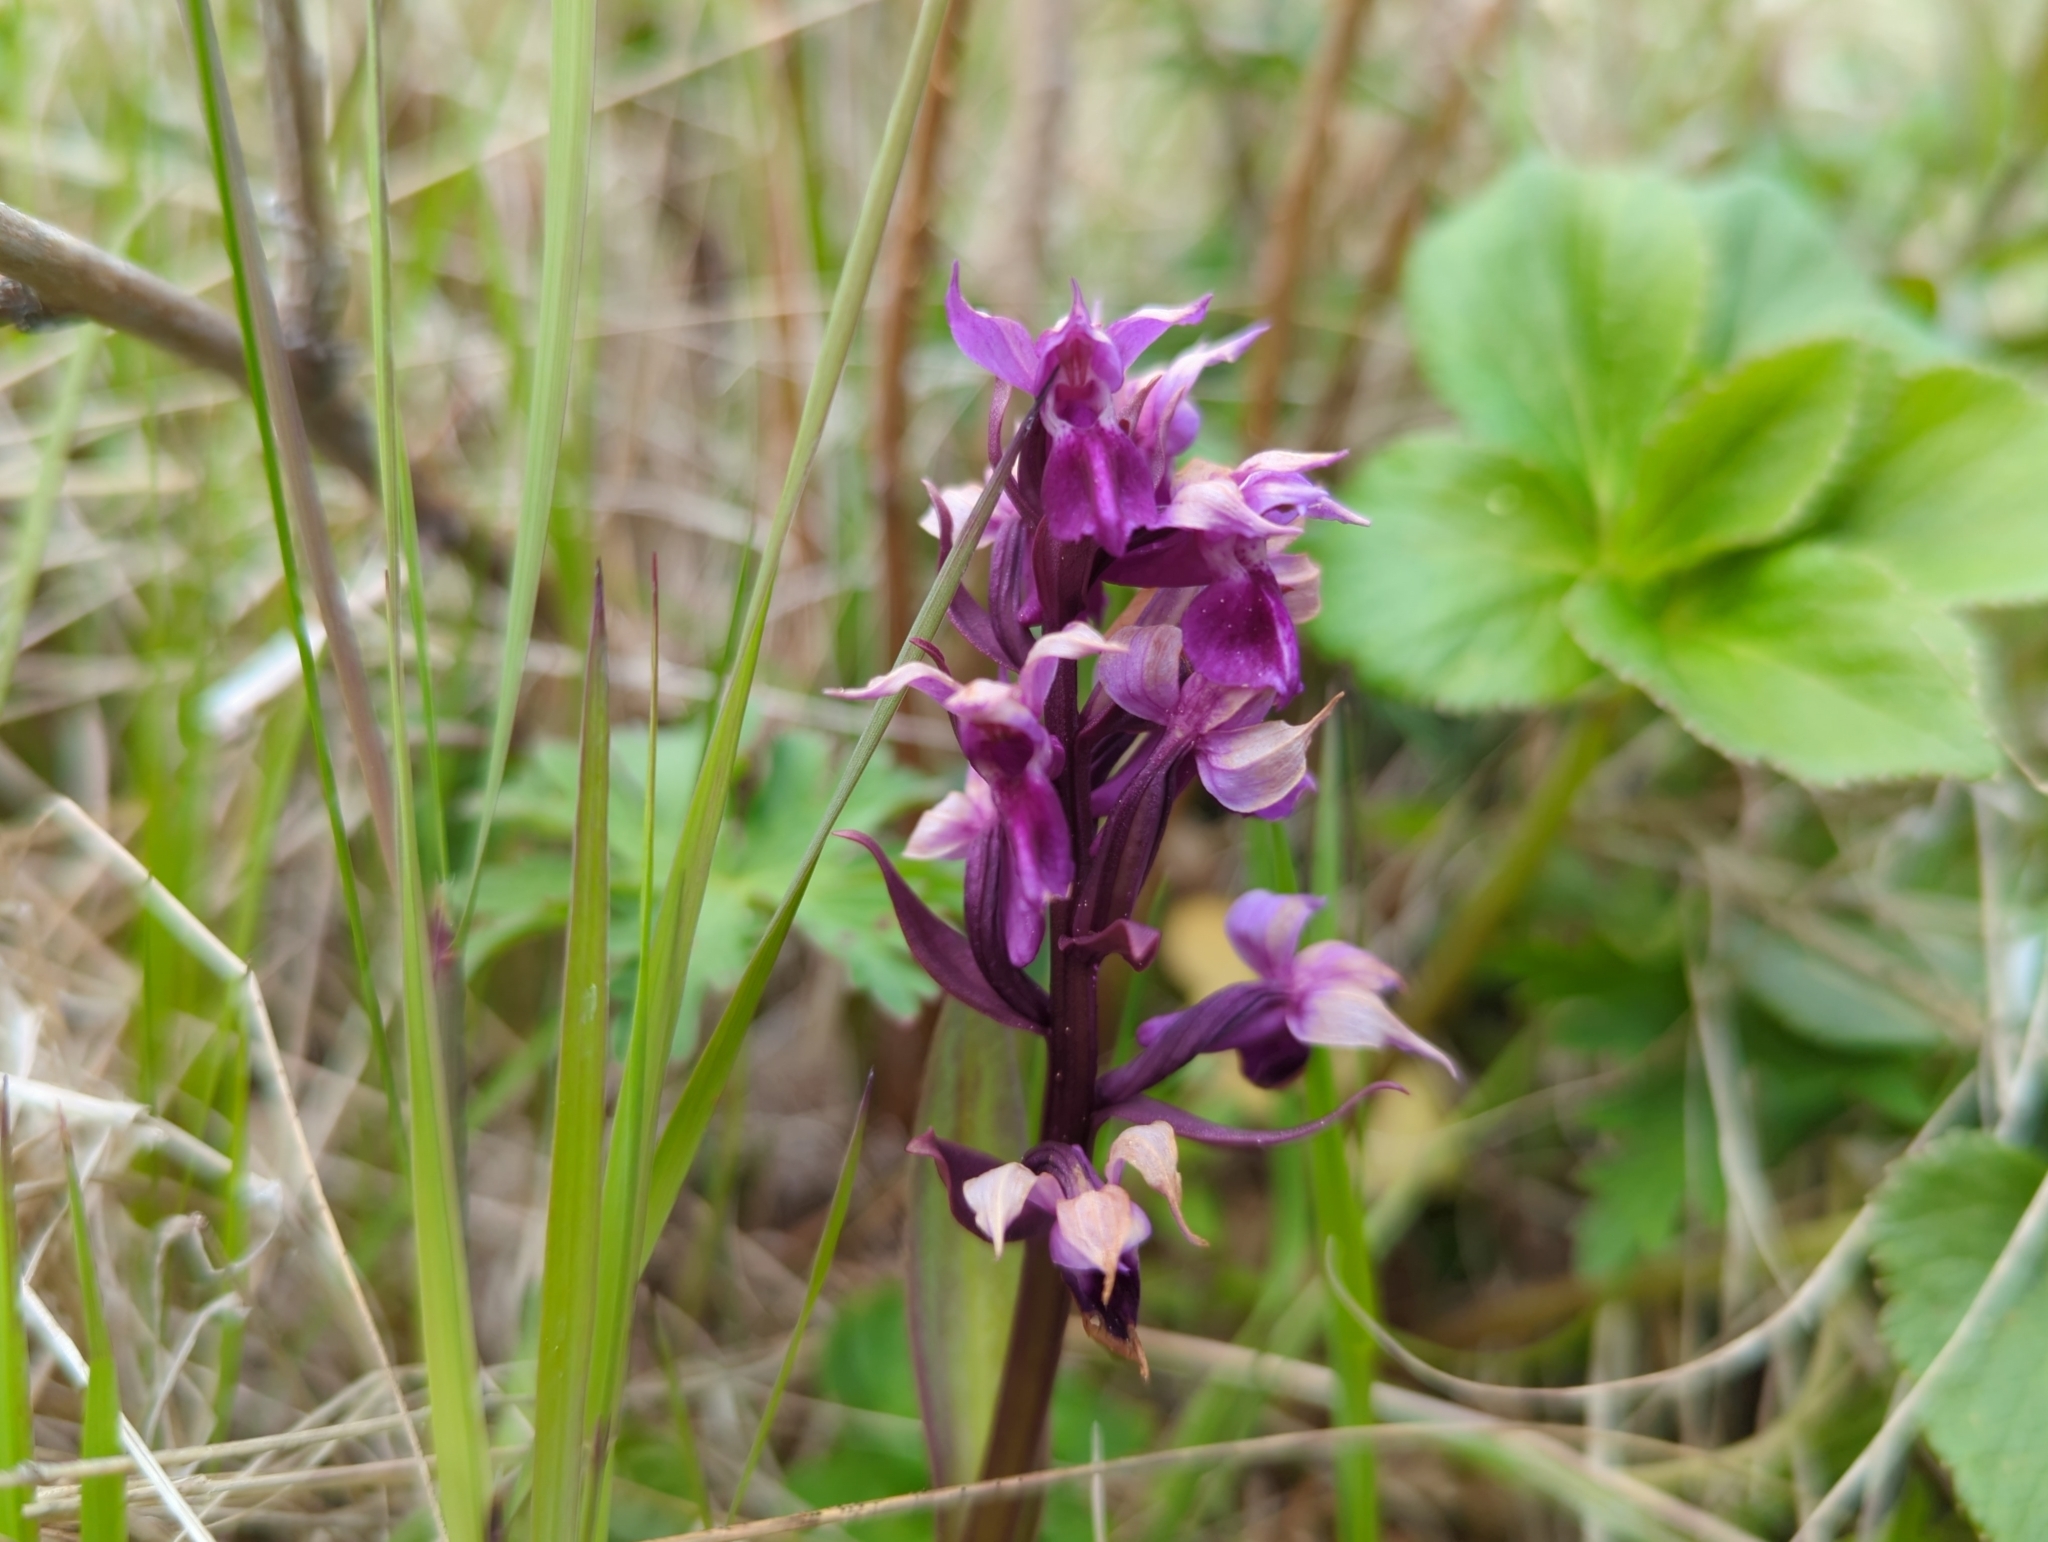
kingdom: Plantae
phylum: Tracheophyta
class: Liliopsida
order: Asparagales
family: Orchidaceae
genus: Dactylorhiza
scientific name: Dactylorhiza aristata
